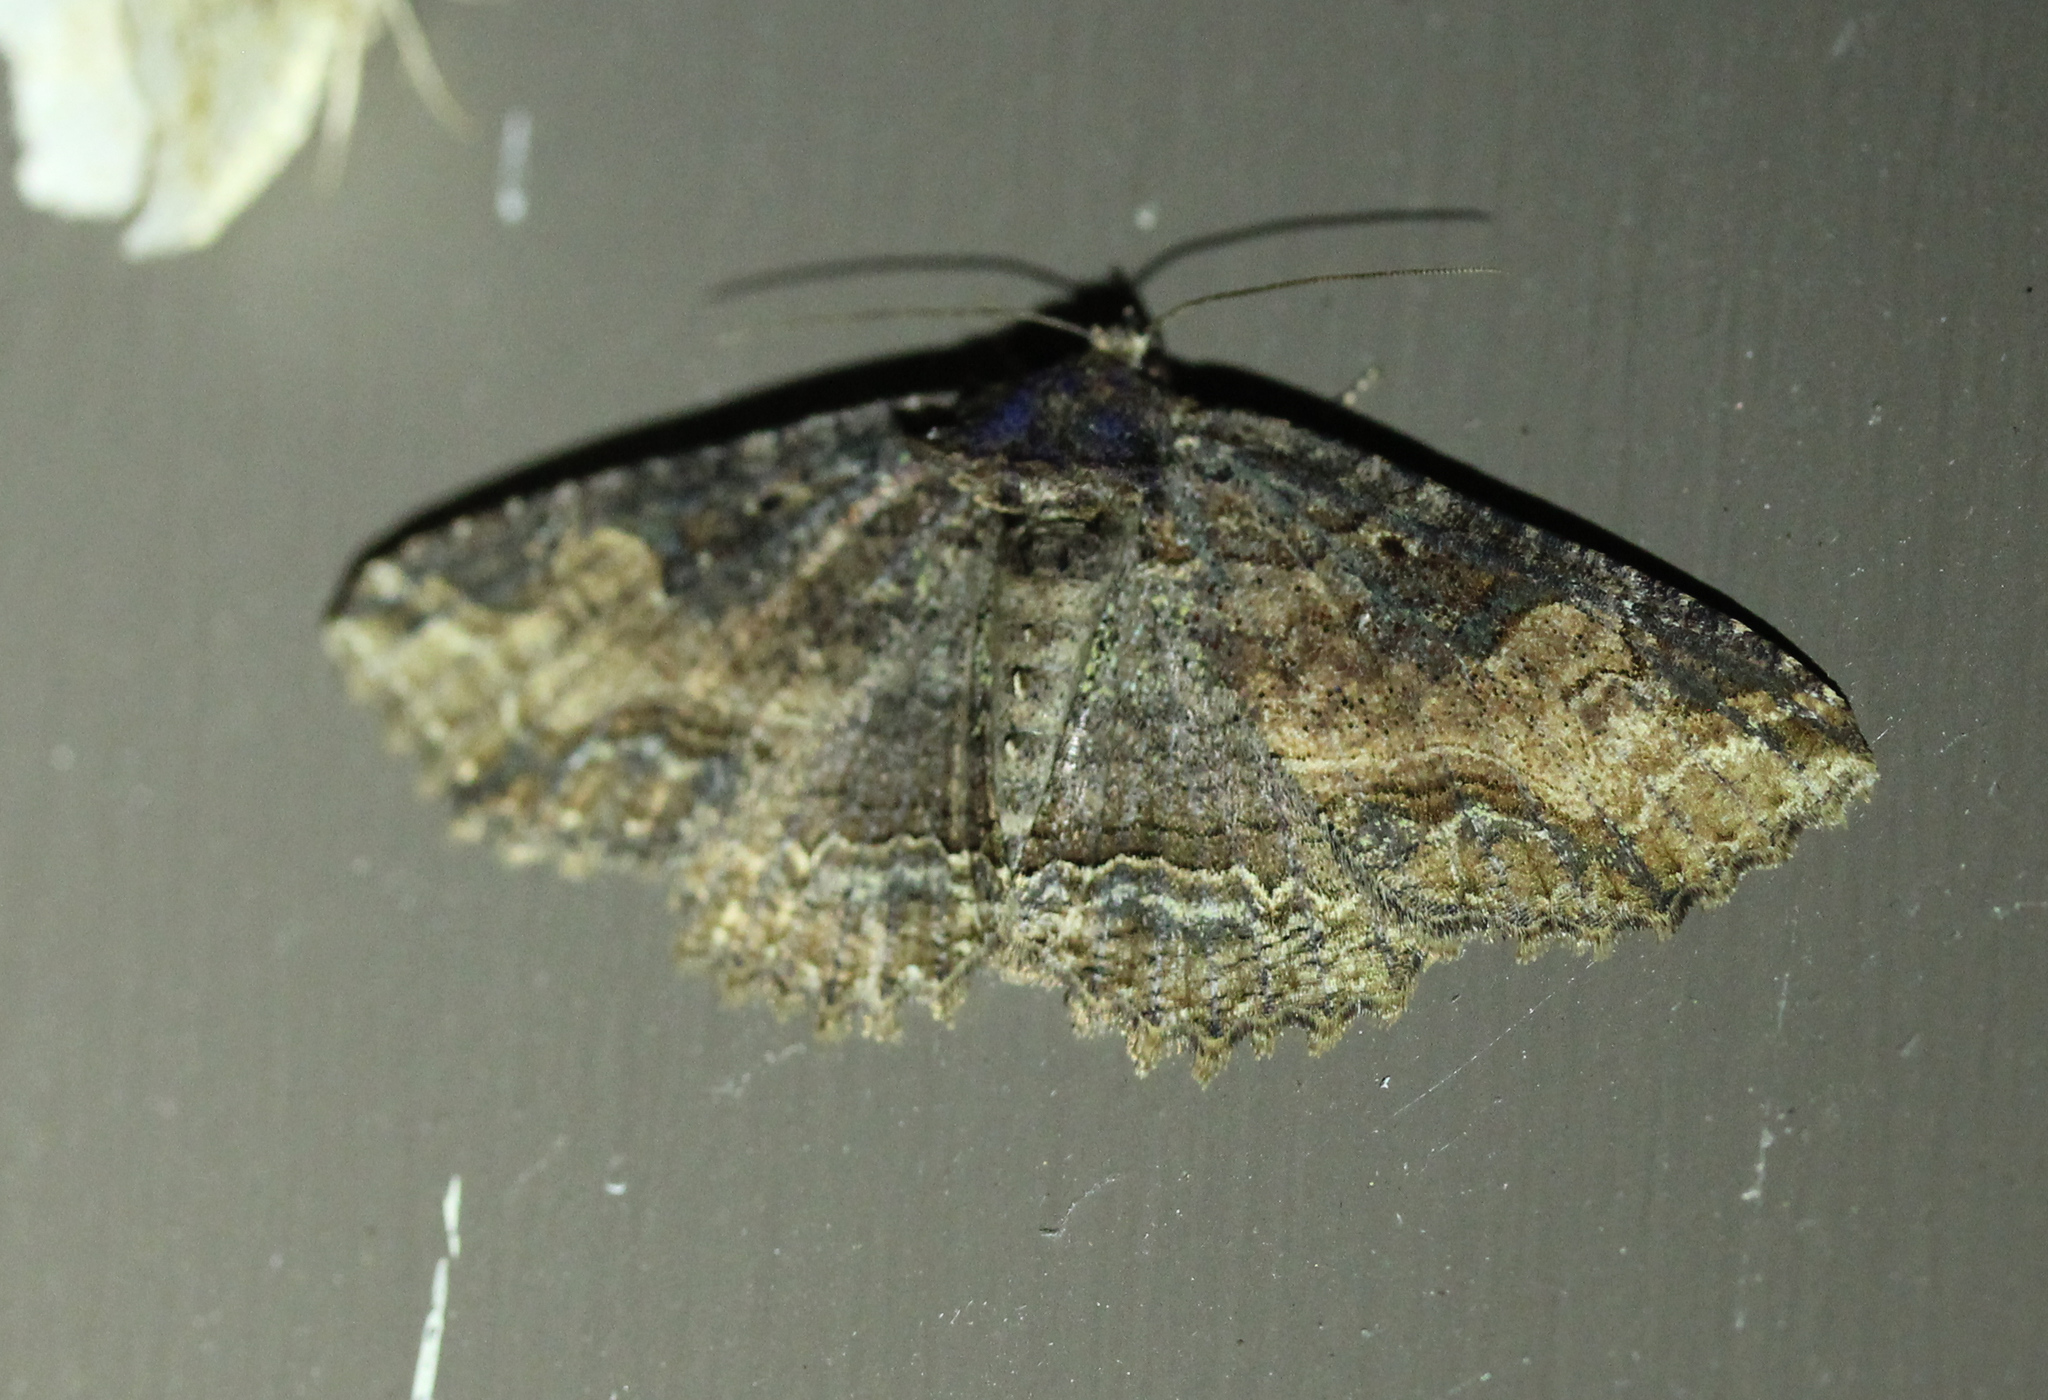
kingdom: Animalia
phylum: Arthropoda
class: Insecta
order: Lepidoptera
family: Erebidae
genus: Zale
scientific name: Zale minerea
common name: Colorful zale moth
